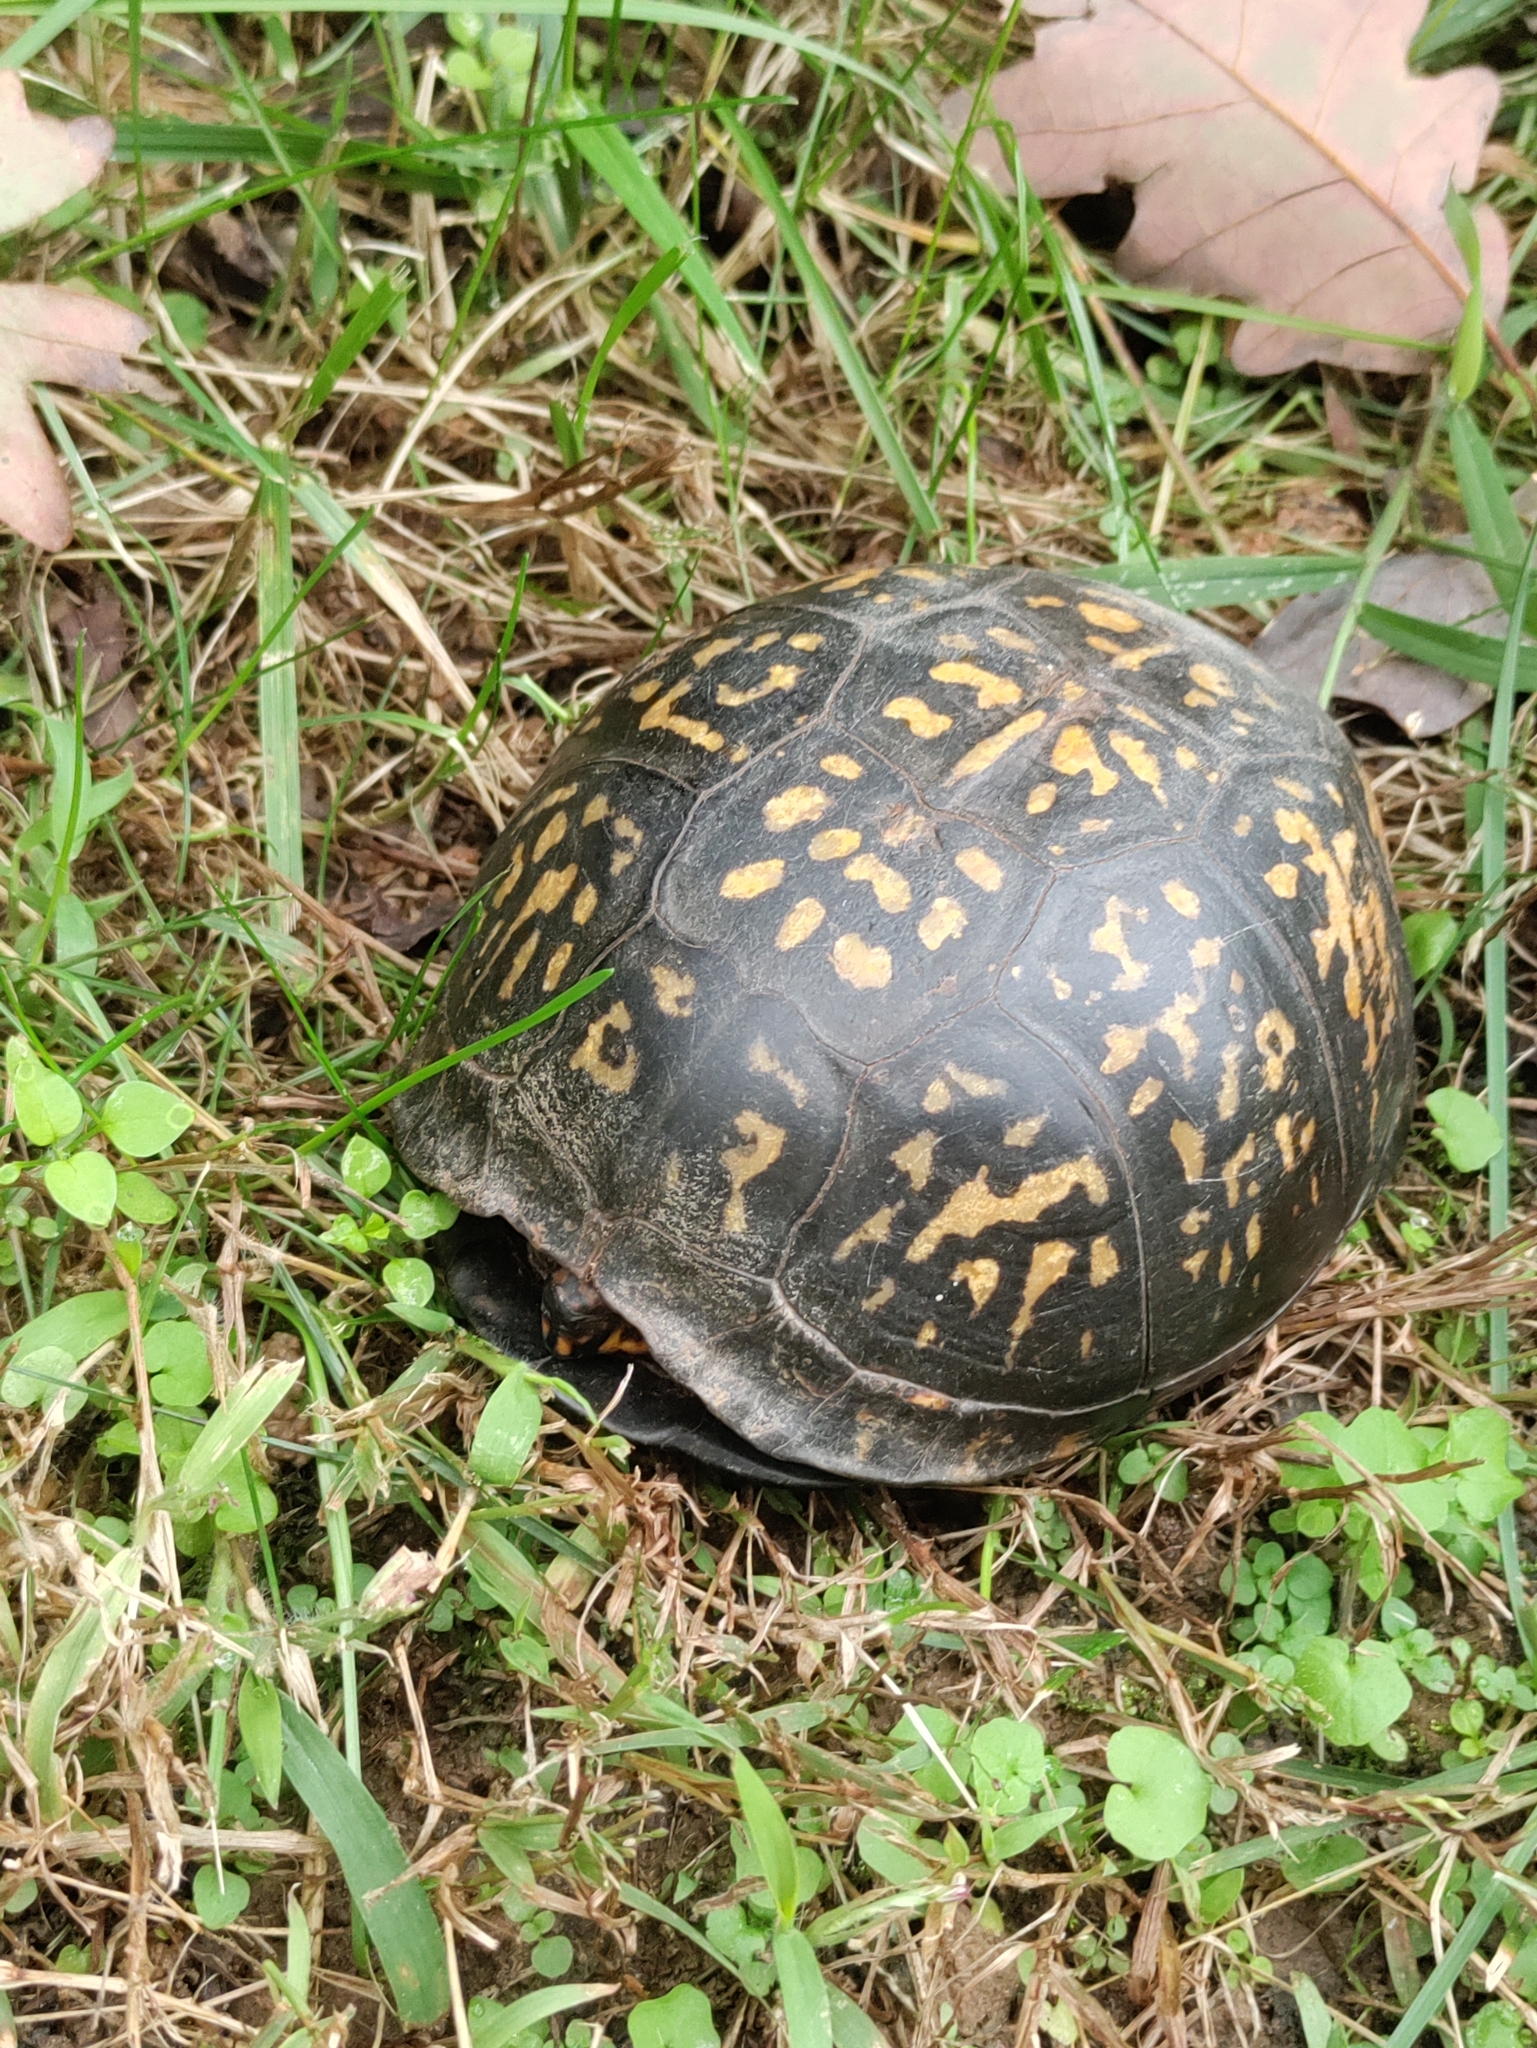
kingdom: Animalia
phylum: Chordata
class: Testudines
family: Emydidae
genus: Terrapene
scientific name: Terrapene carolina
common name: Common box turtle
